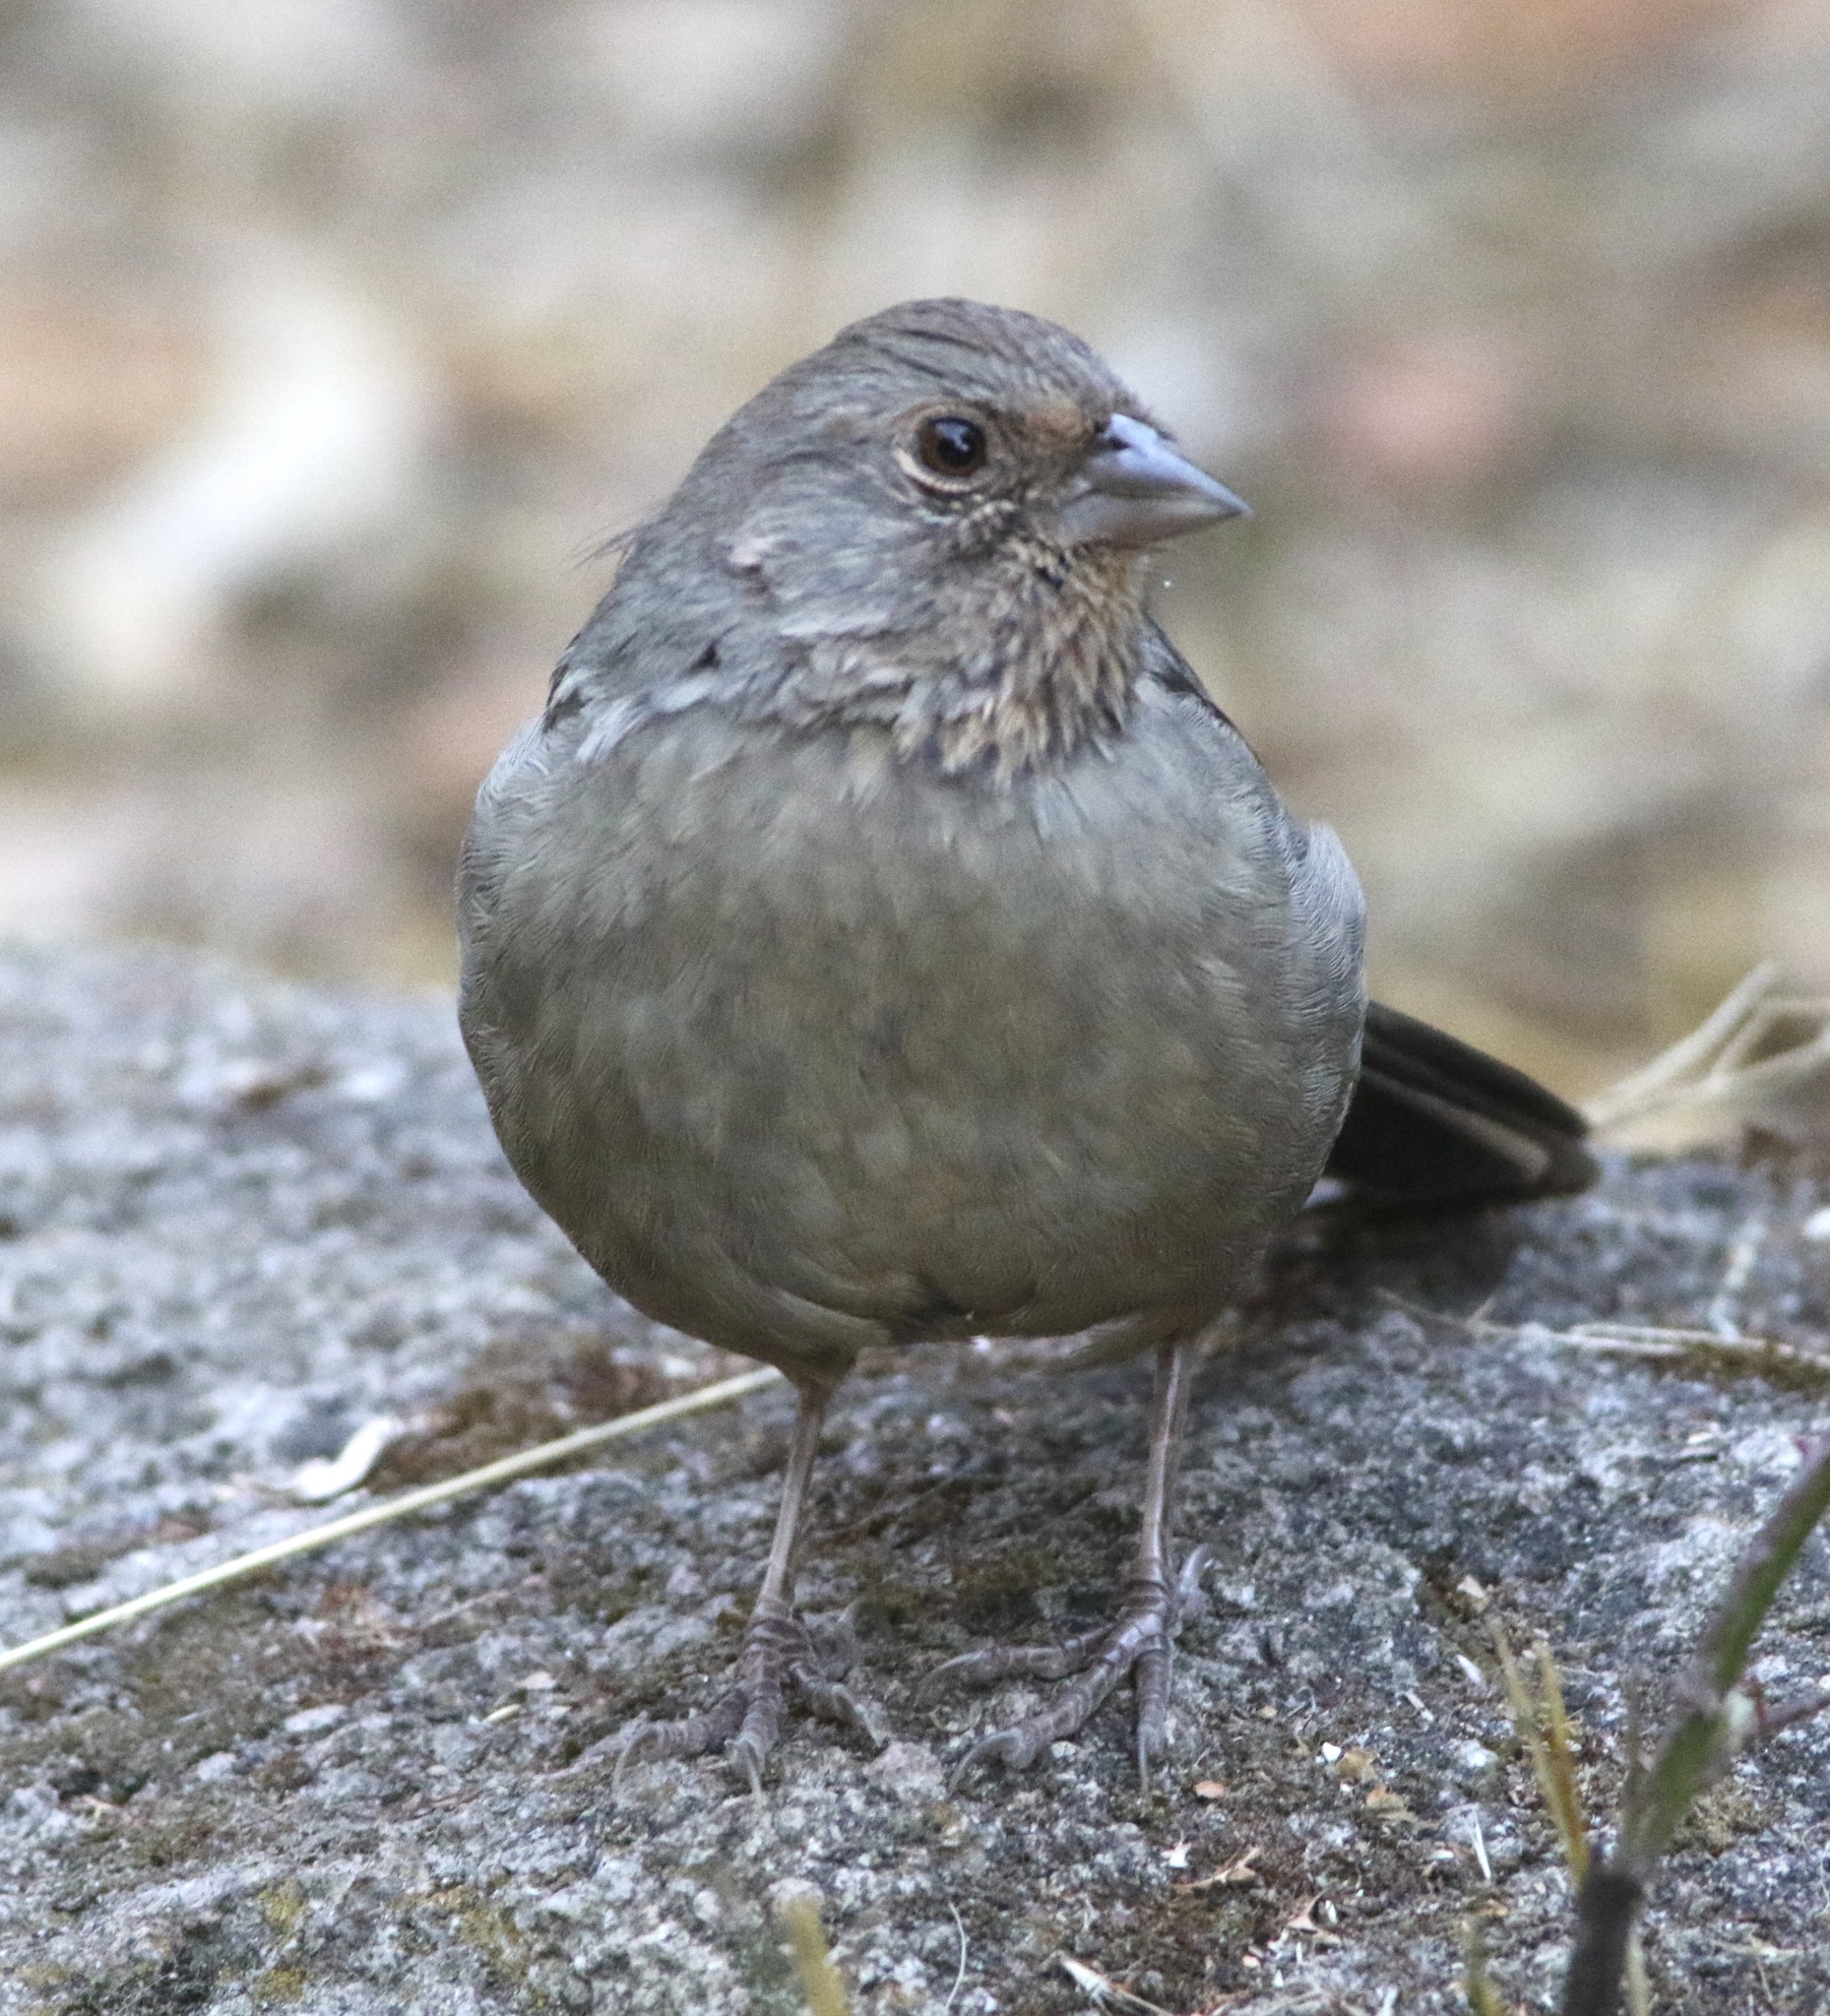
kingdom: Animalia
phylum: Chordata
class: Aves
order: Passeriformes
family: Passerellidae
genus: Melozone
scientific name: Melozone crissalis
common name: California towhee
